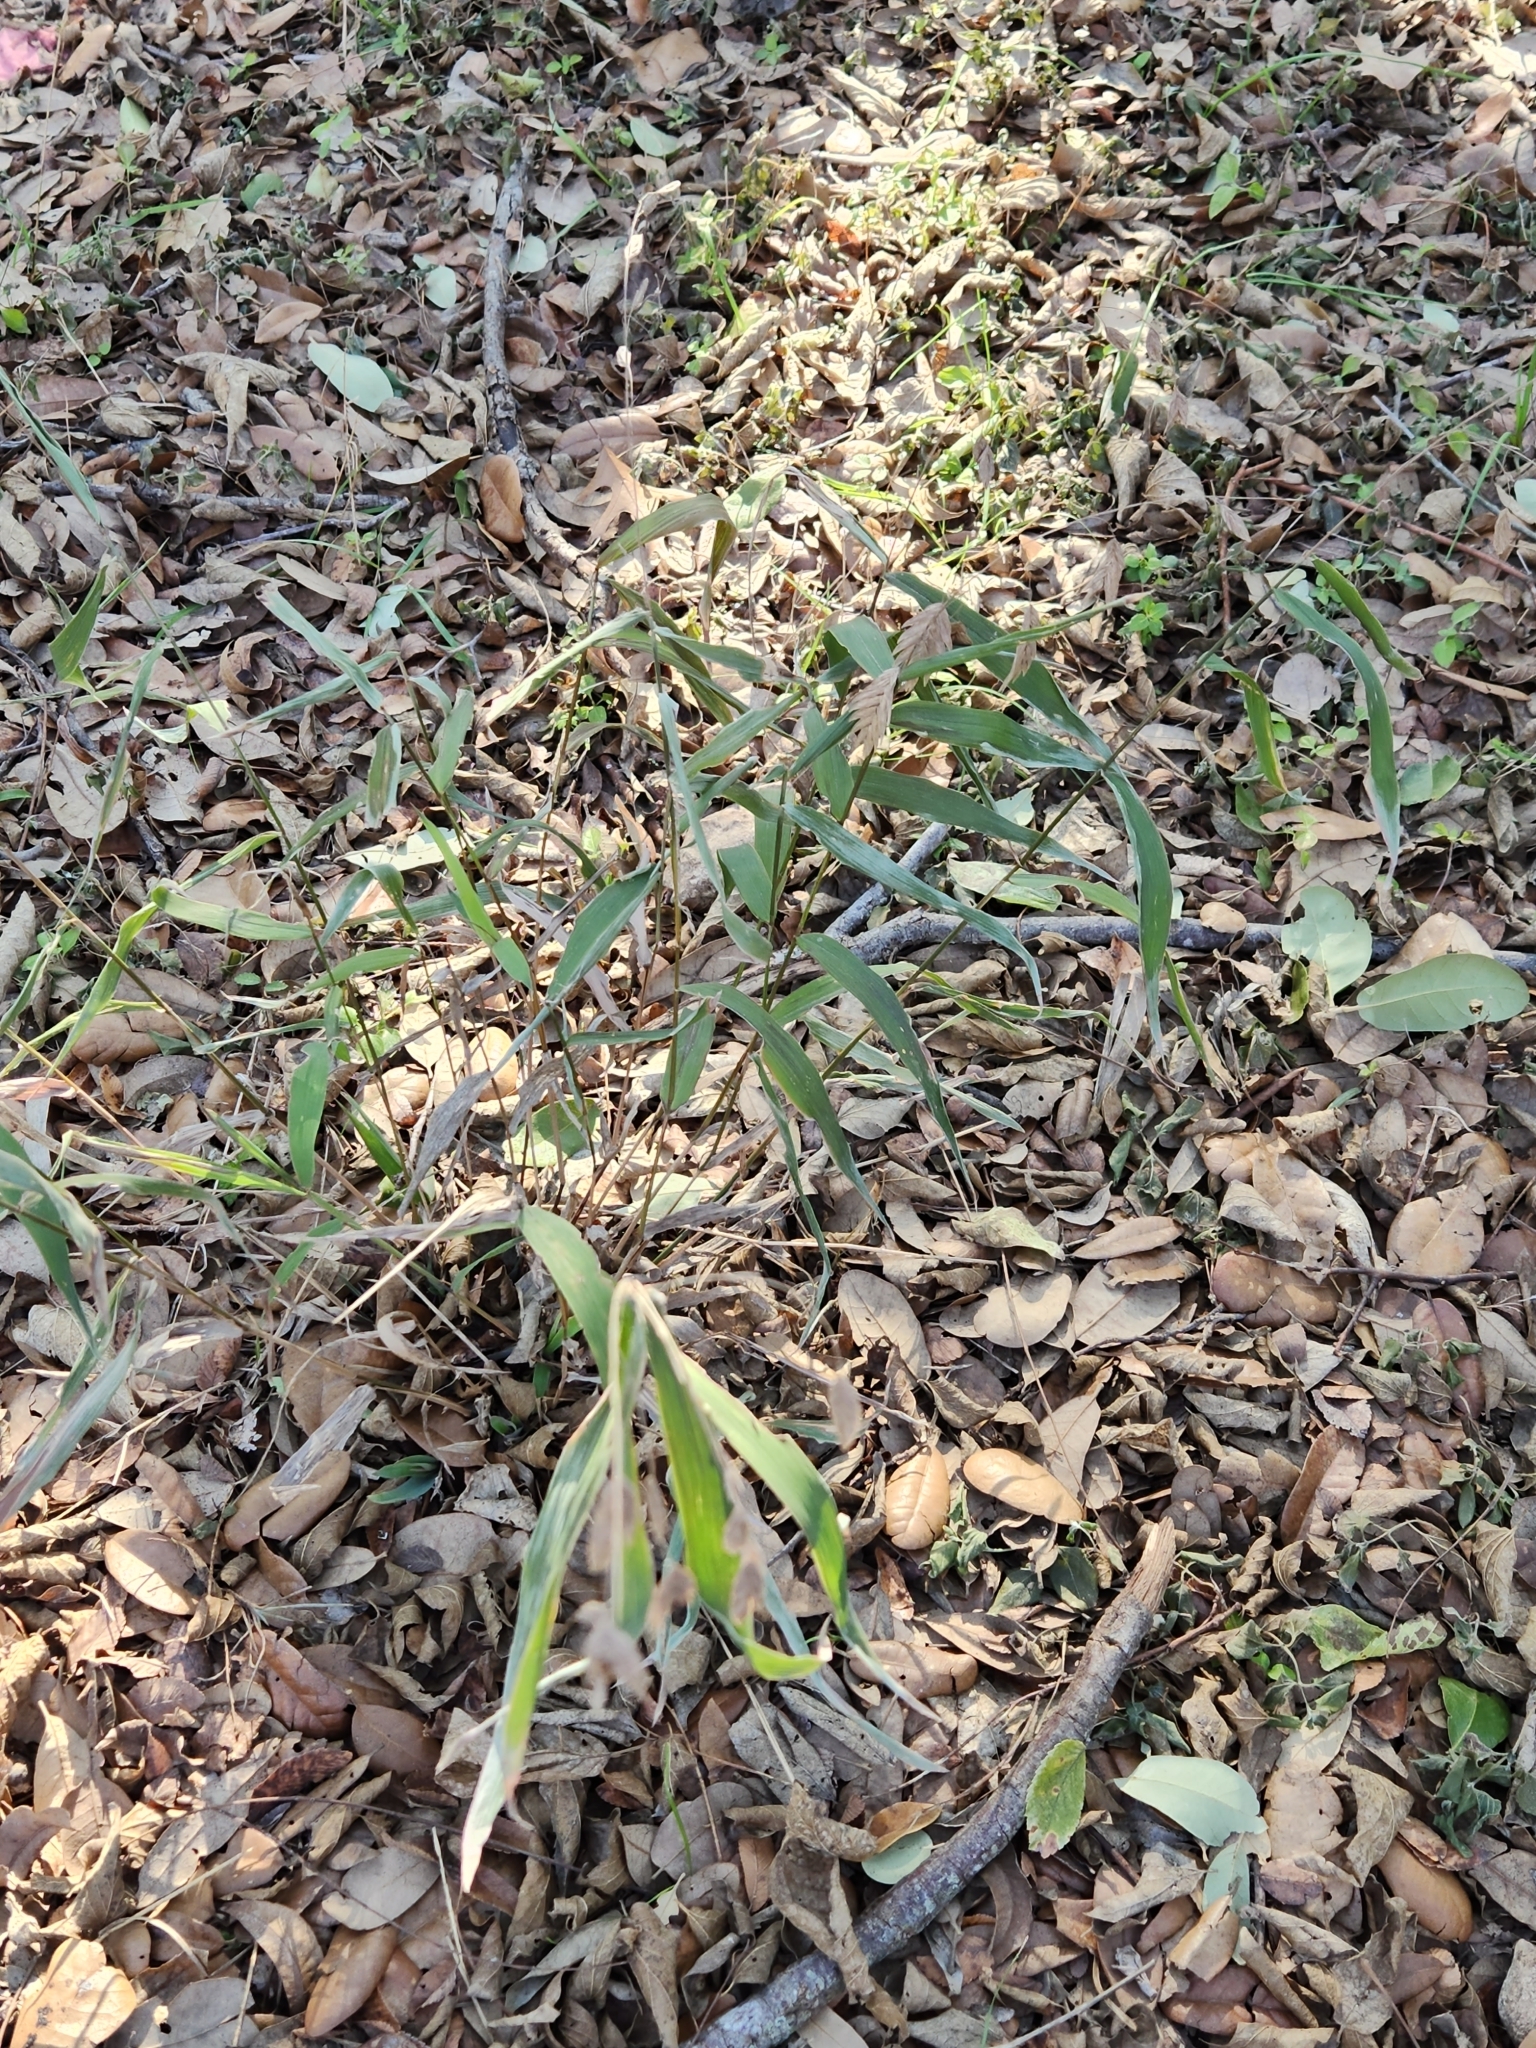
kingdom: Plantae
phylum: Tracheophyta
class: Liliopsida
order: Poales
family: Poaceae
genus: Chasmanthium
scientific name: Chasmanthium latifolium
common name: Broad-leaved chasmanthium
